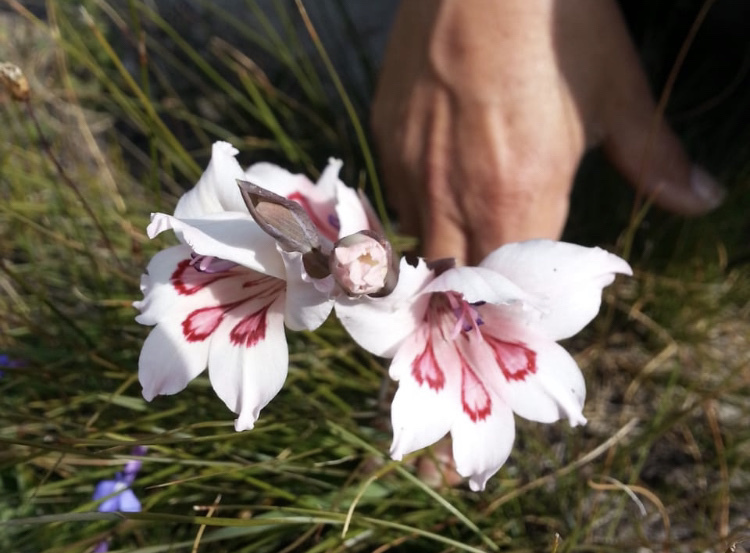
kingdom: Plantae
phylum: Tracheophyta
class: Liliopsida
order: Asparagales
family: Iridaceae
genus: Gladiolus
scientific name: Gladiolus carneus
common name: Painted-lady
